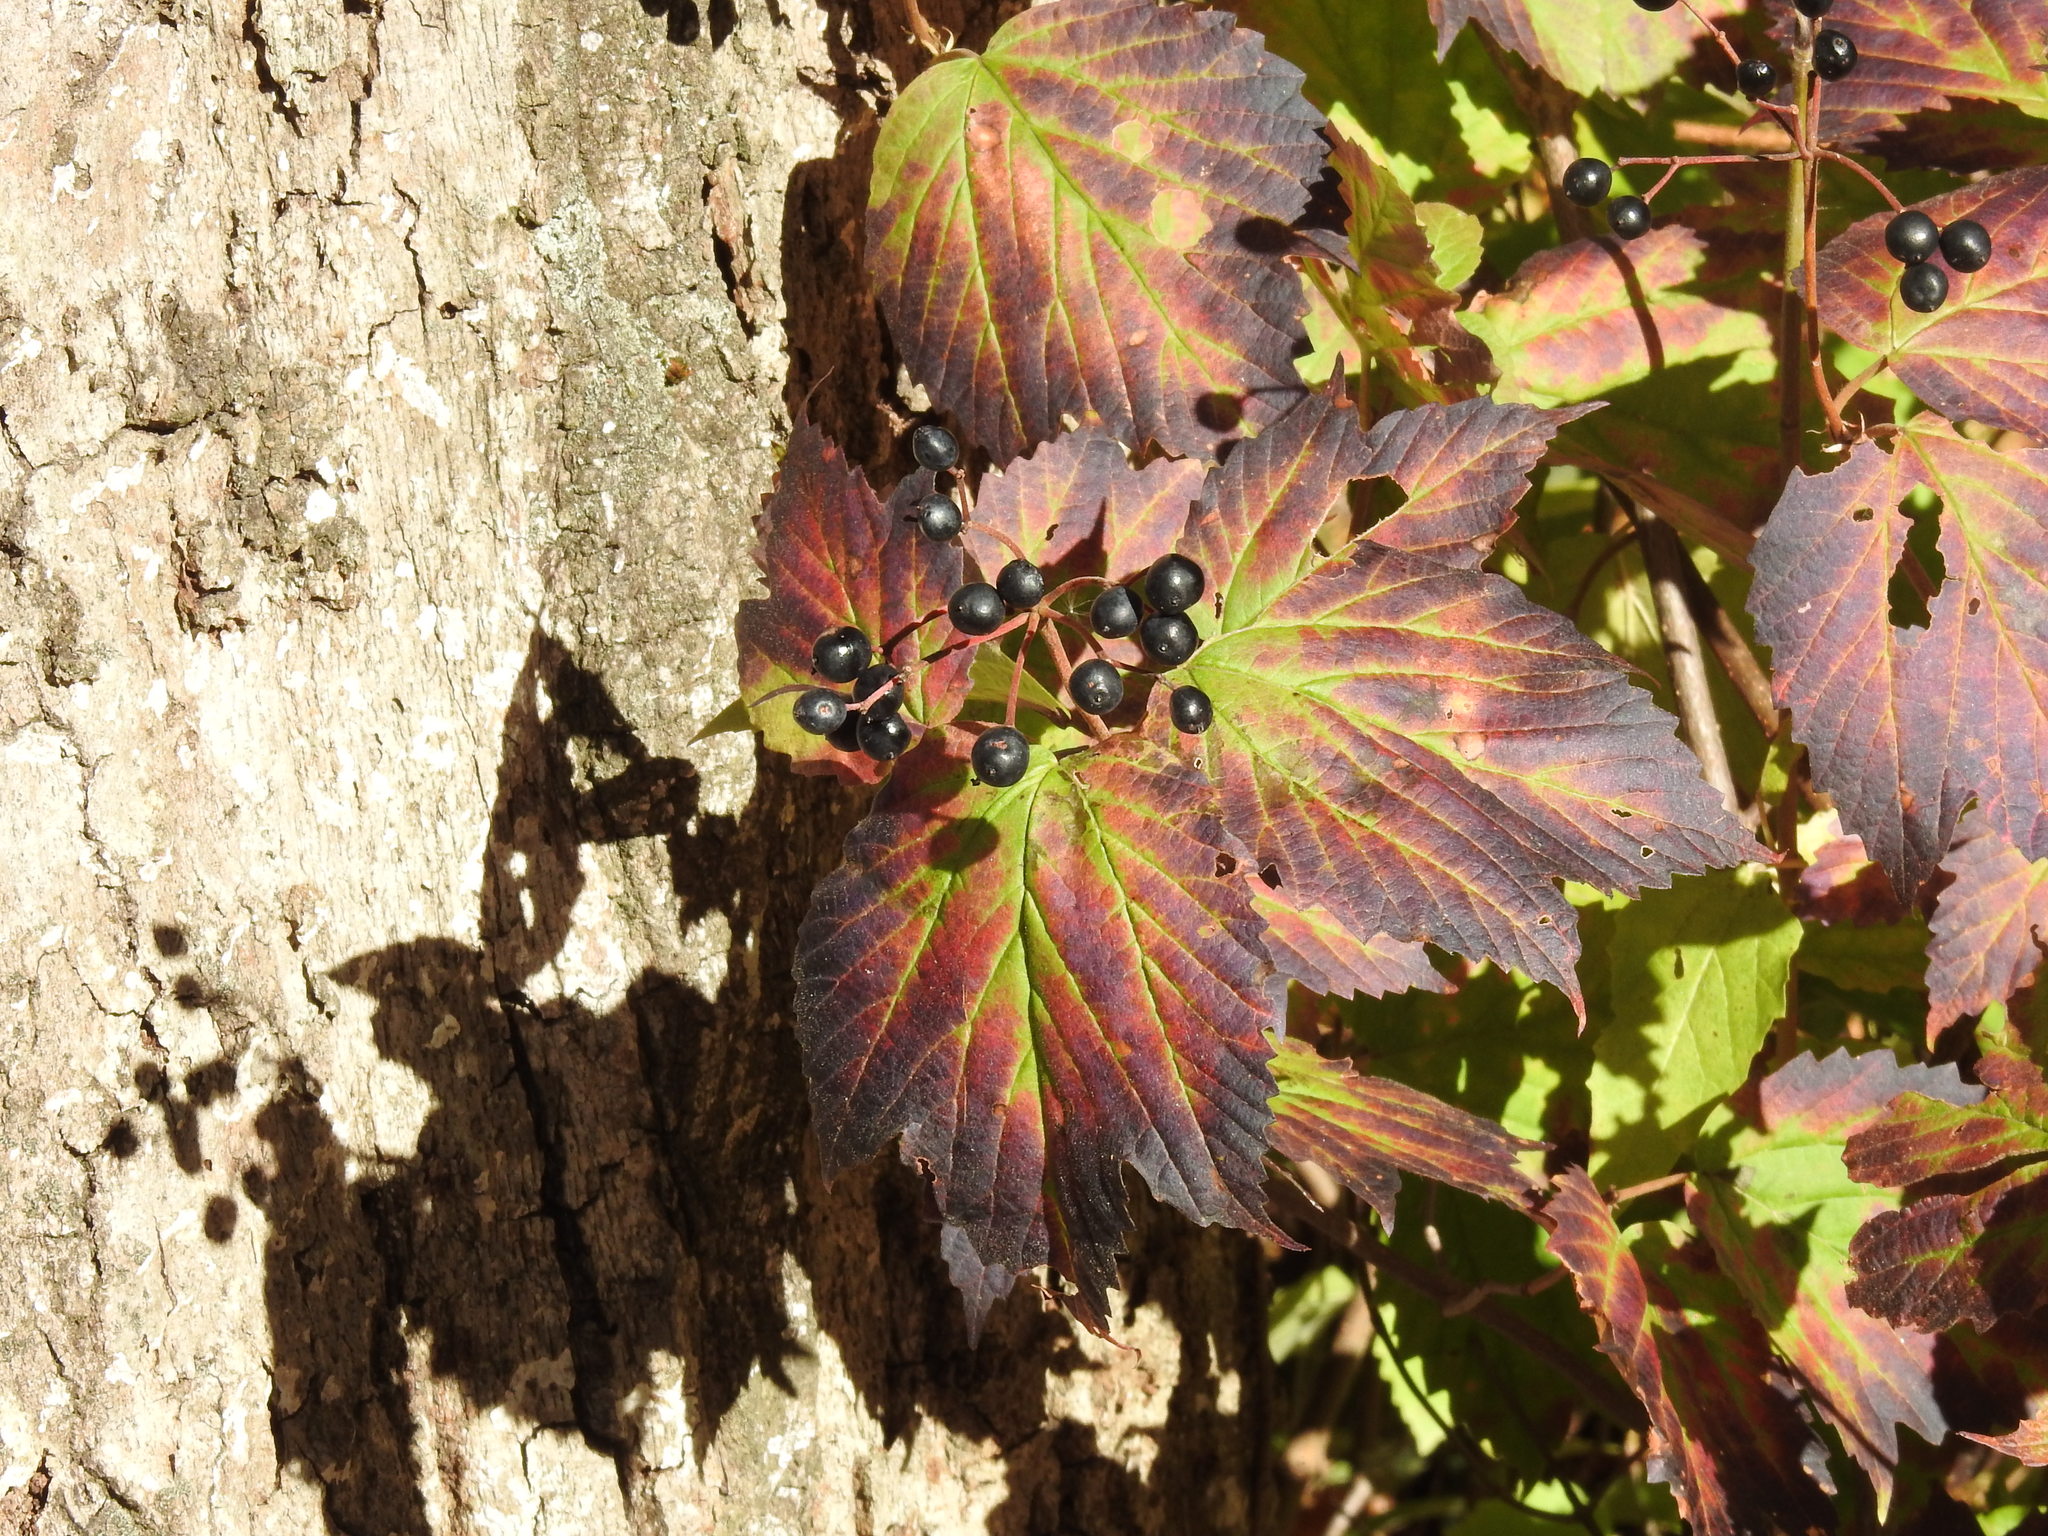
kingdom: Plantae
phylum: Tracheophyta
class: Magnoliopsida
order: Dipsacales
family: Viburnaceae
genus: Viburnum
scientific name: Viburnum acerifolium
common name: Dockmackie
